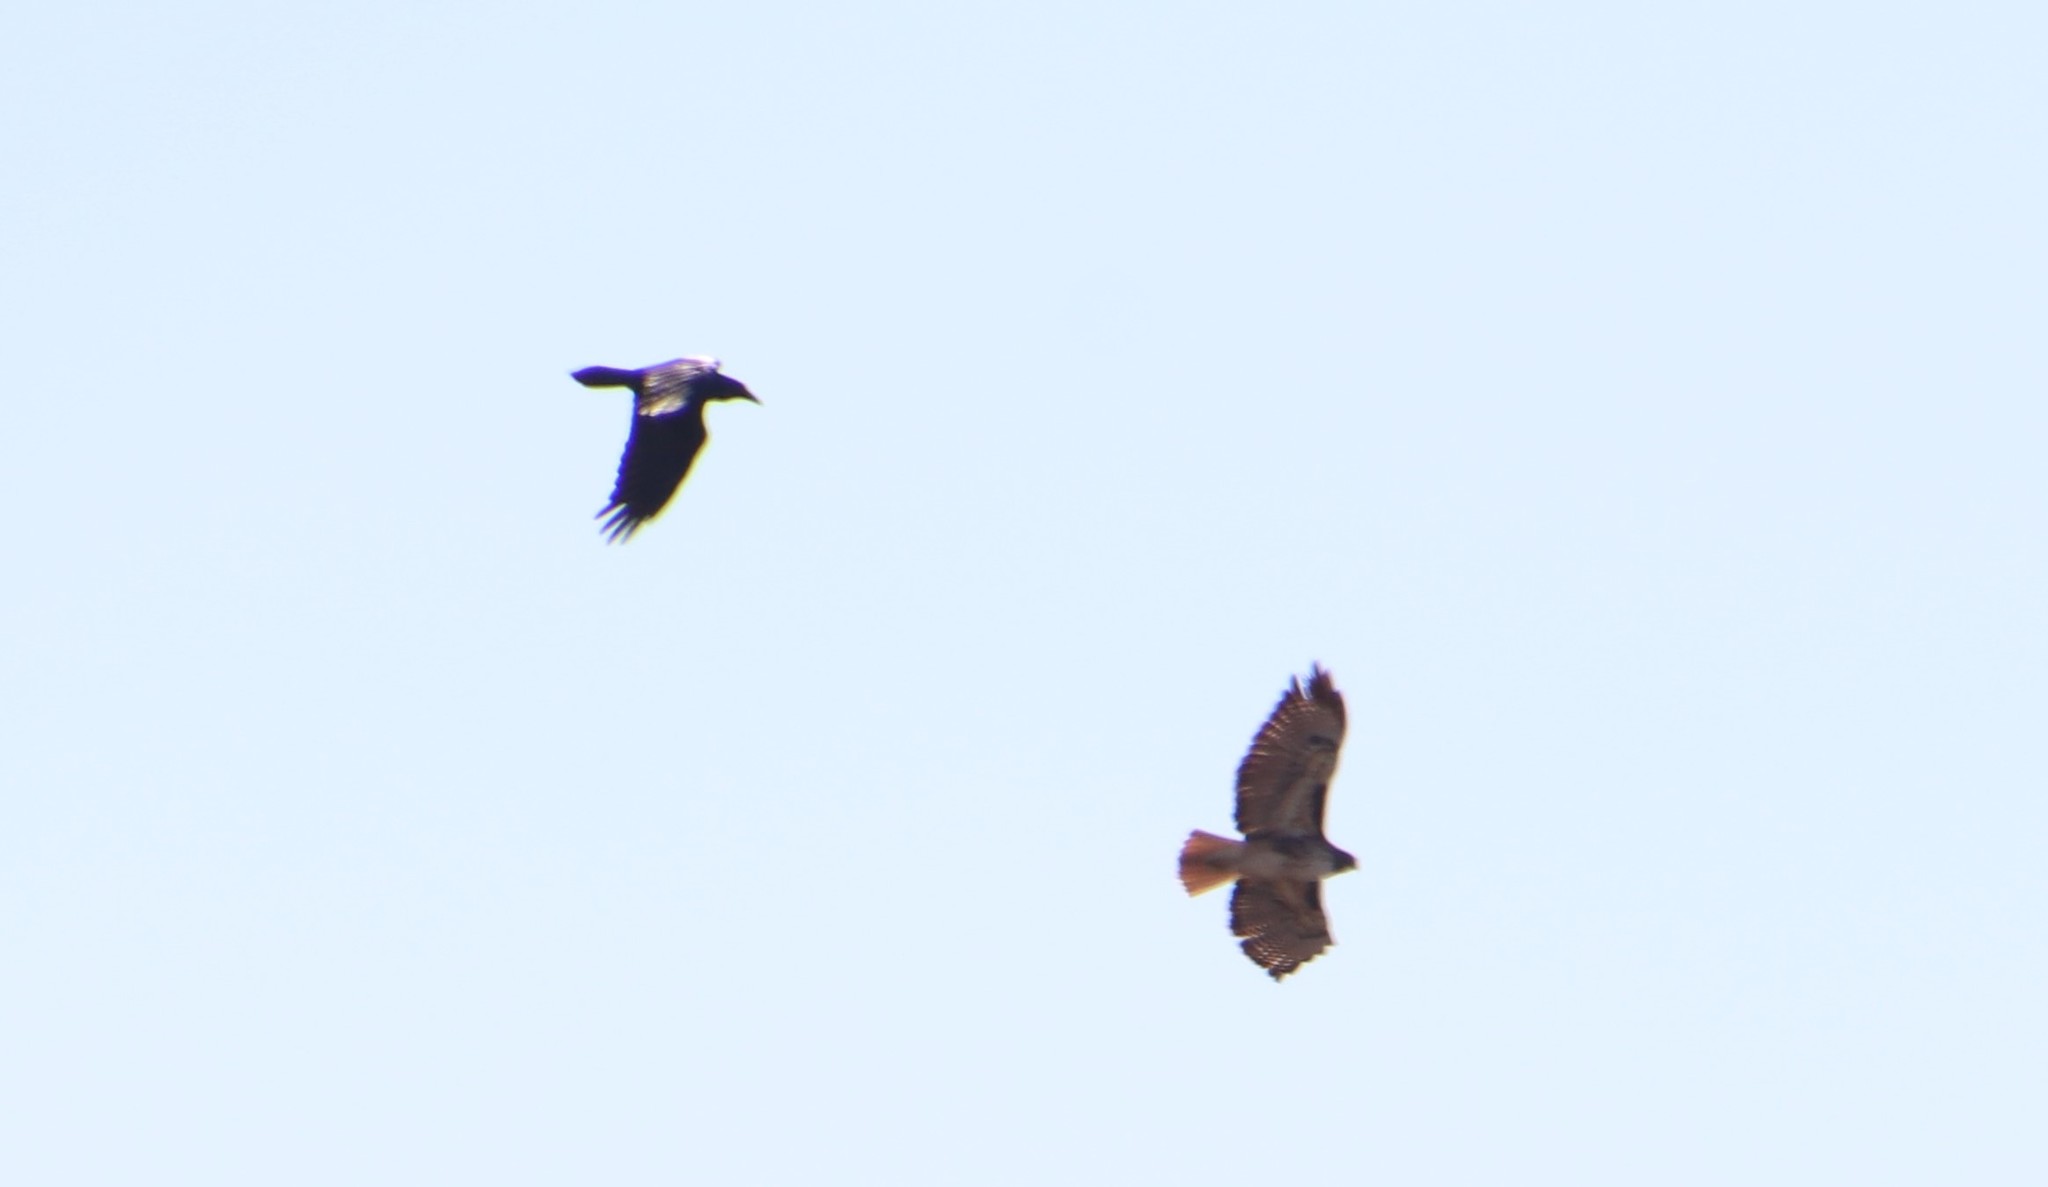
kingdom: Animalia
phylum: Chordata
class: Aves
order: Passeriformes
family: Corvidae
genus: Corvus
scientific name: Corvus corax
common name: Common raven
